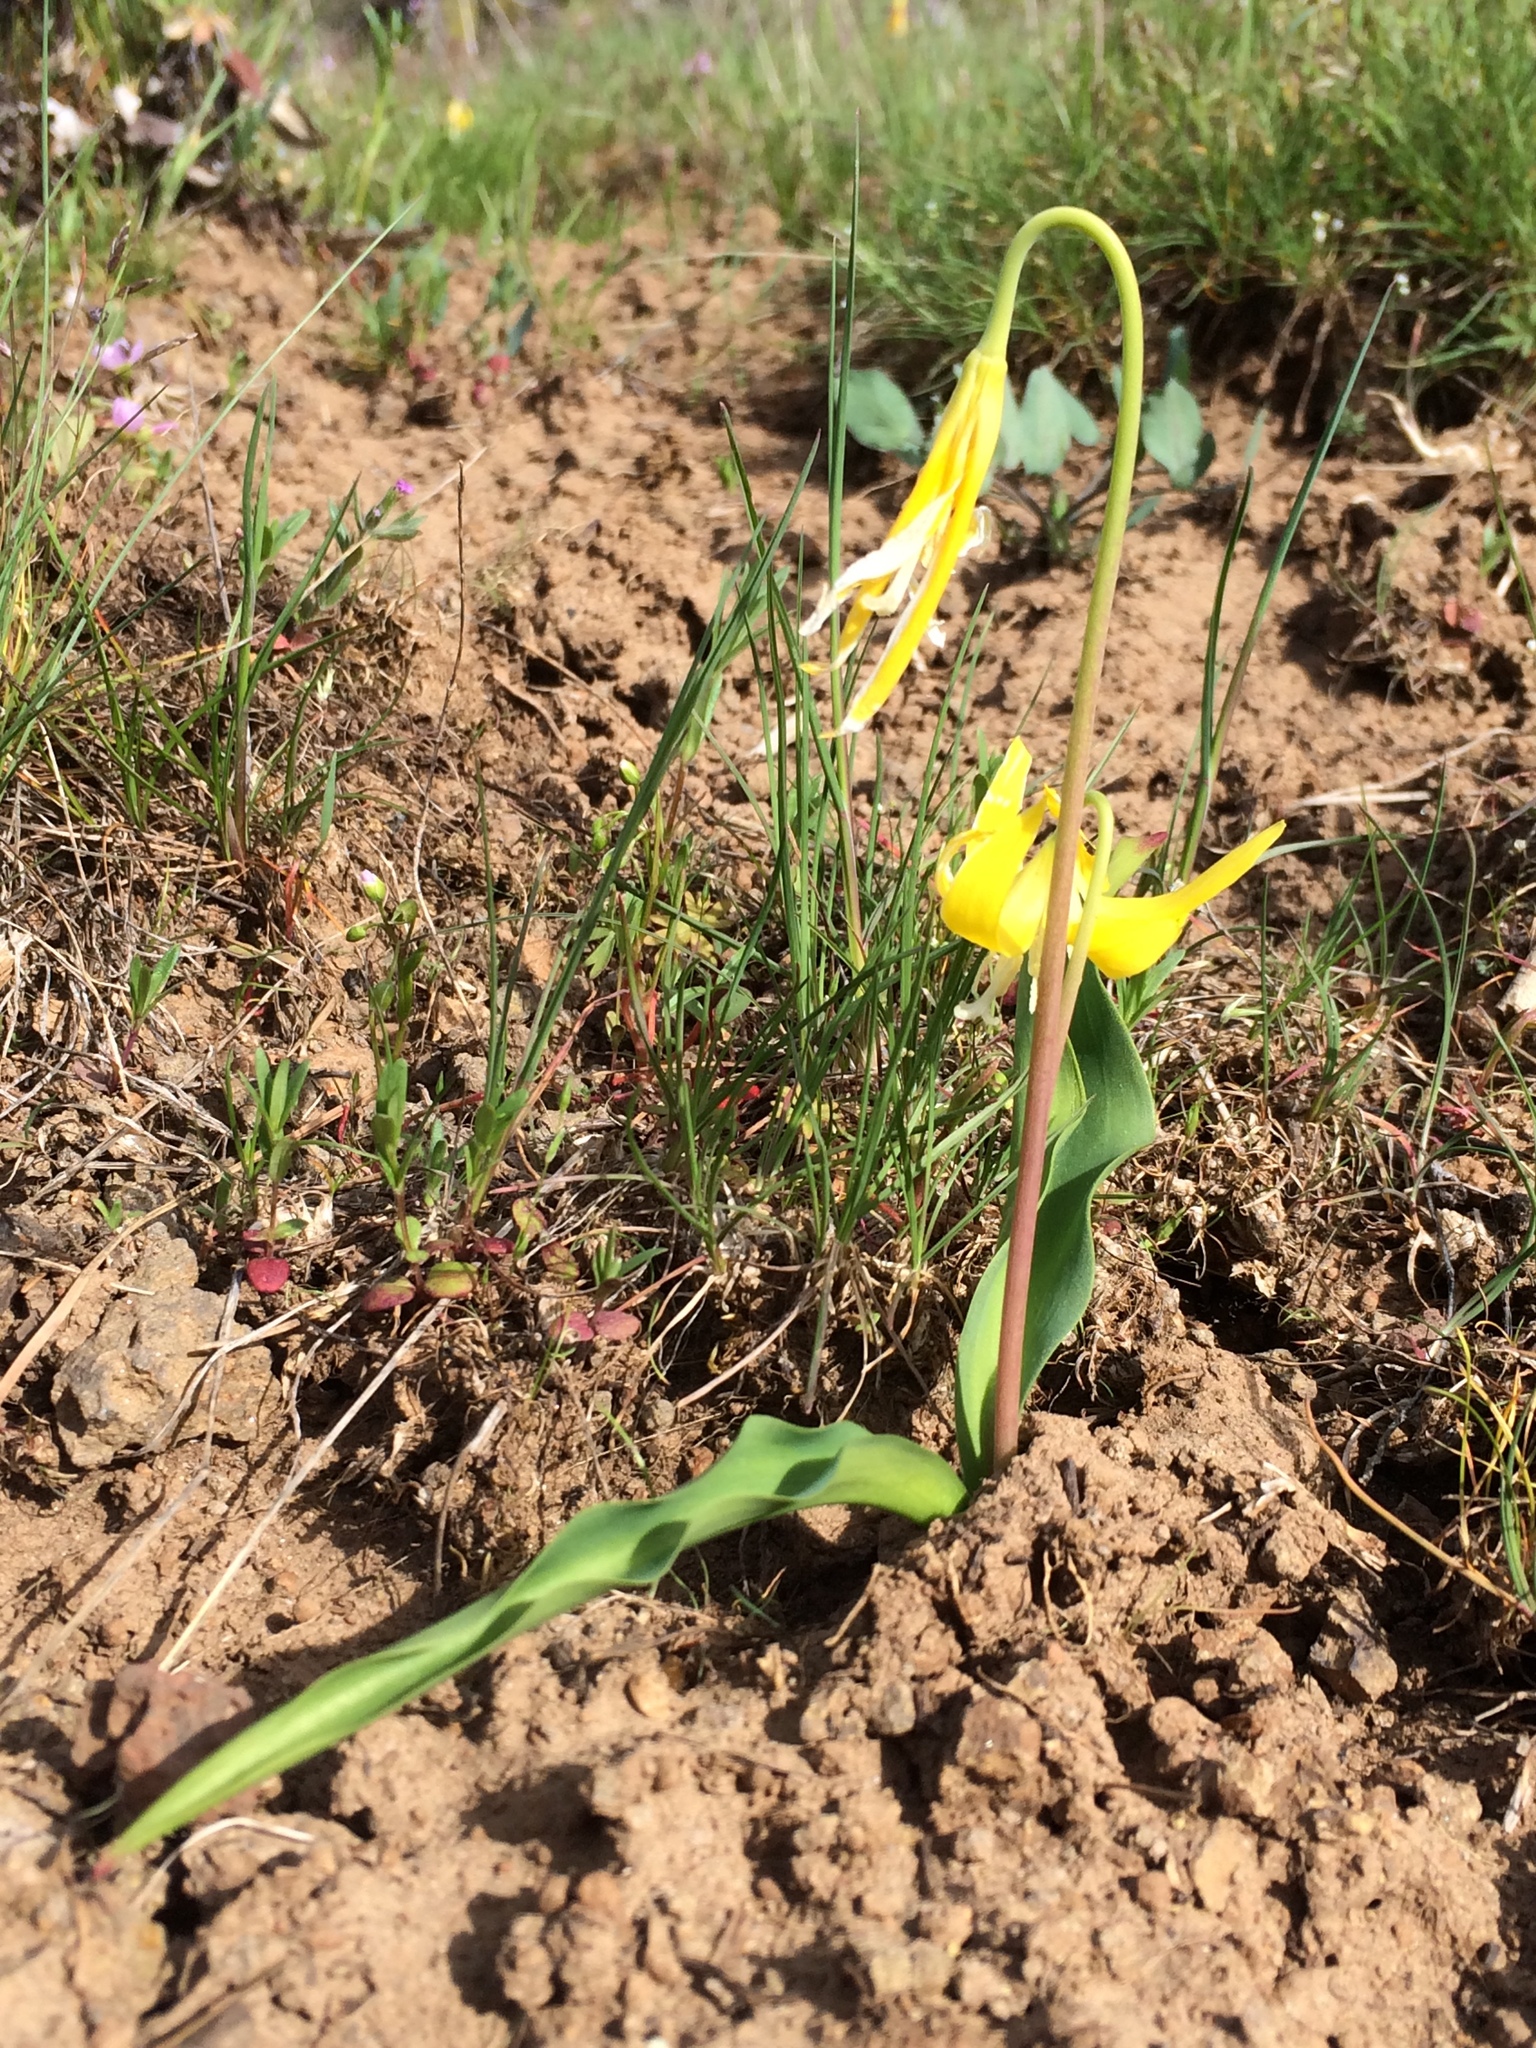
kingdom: Plantae
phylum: Tracheophyta
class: Liliopsida
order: Liliales
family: Liliaceae
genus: Erythronium
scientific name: Erythronium grandiflorum
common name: Avalanche-lily
